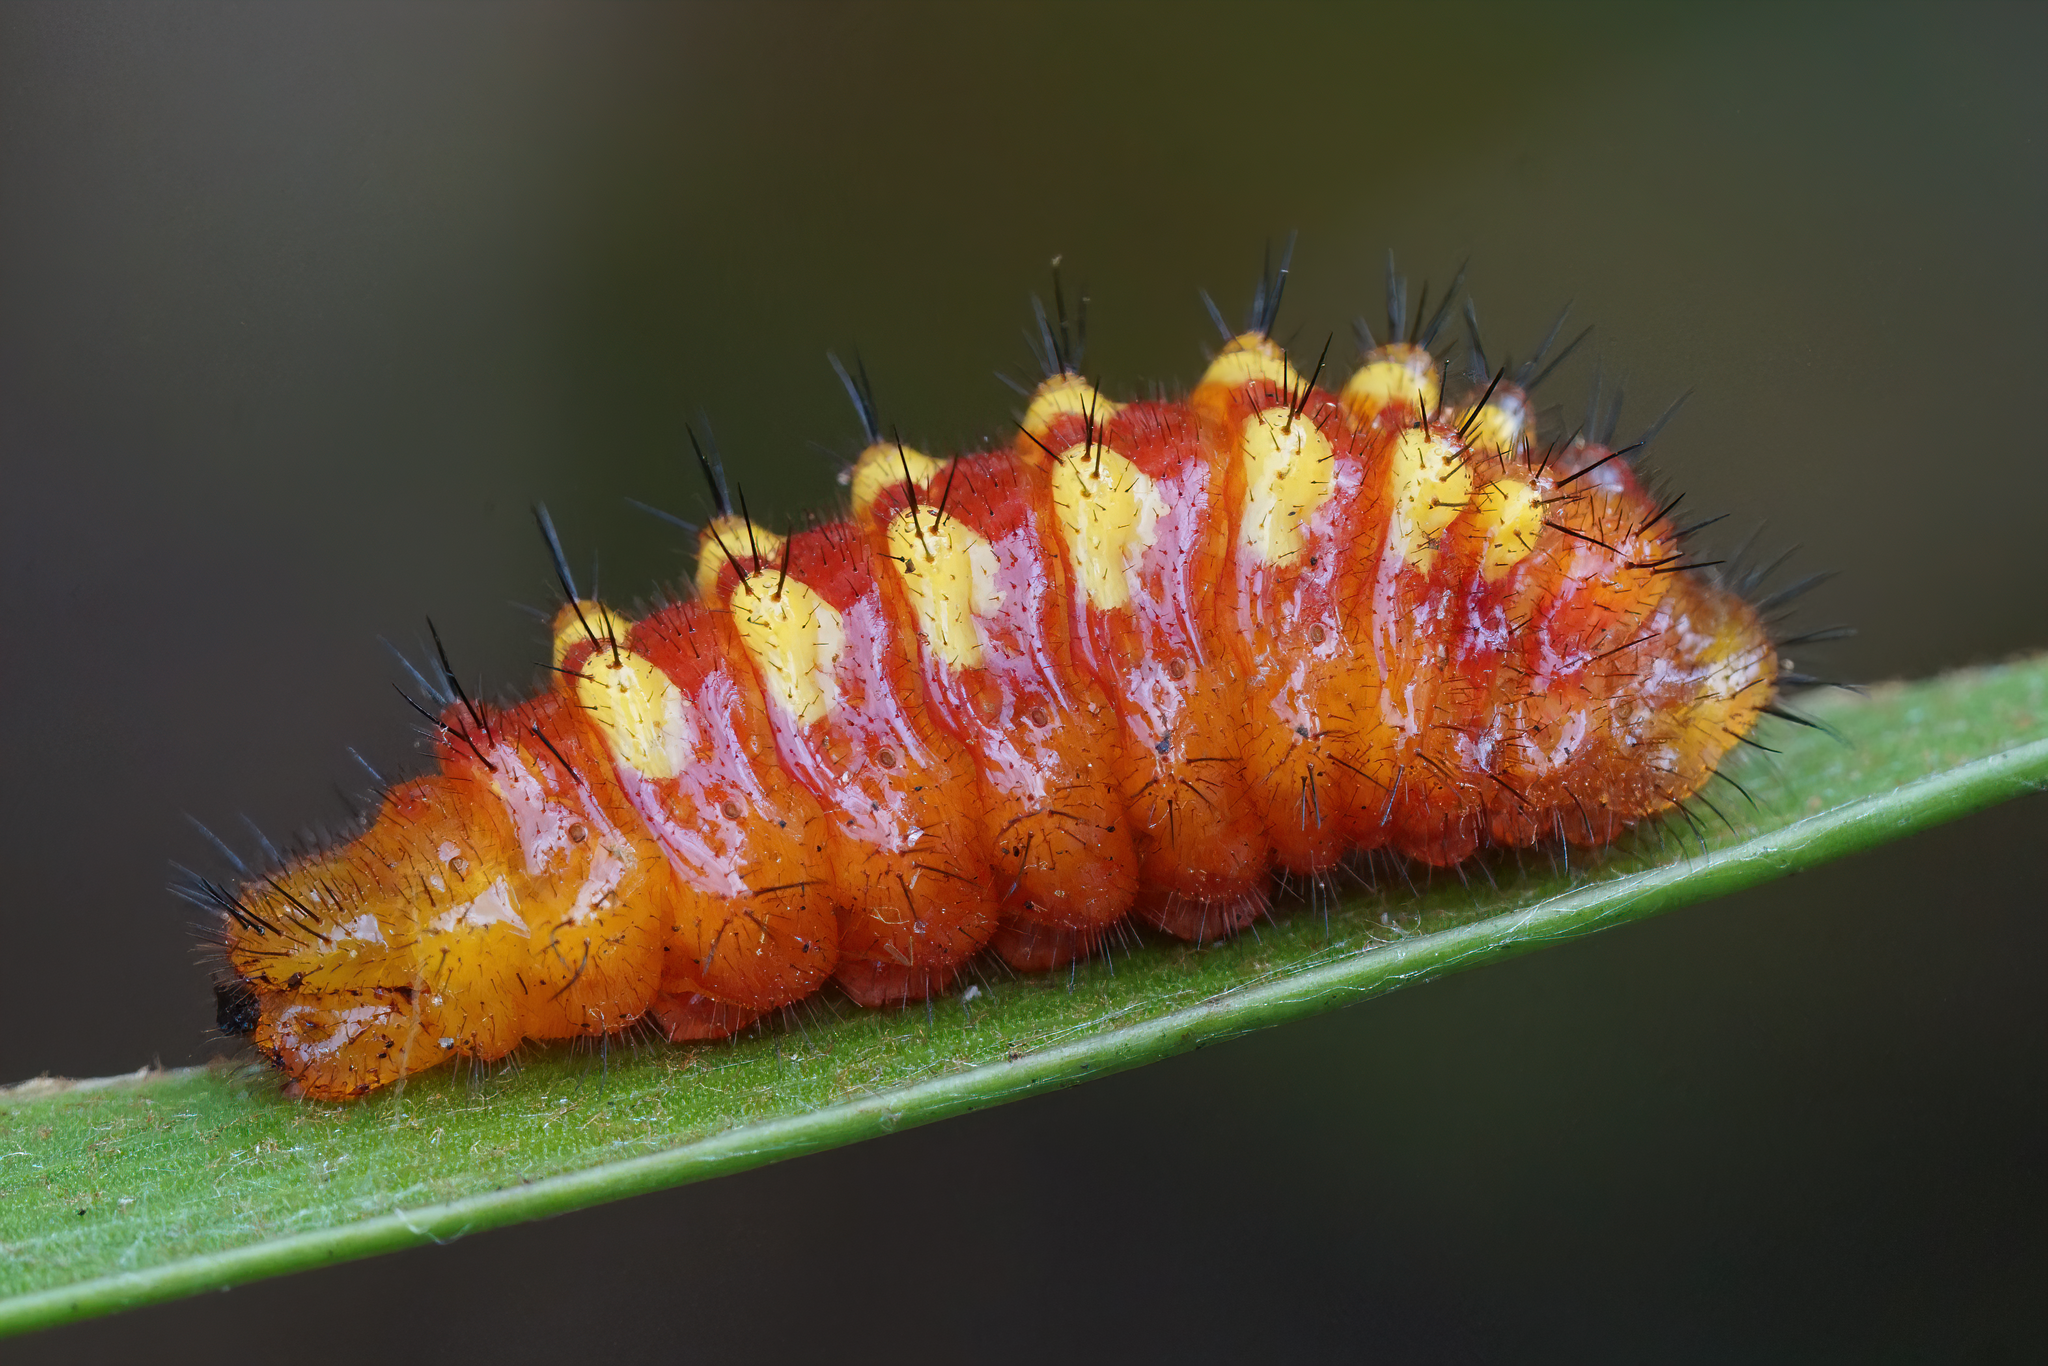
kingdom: Animalia
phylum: Arthropoda
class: Insecta
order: Lepidoptera
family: Lycaenidae
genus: Eumaeus
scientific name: Eumaeus atala
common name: Atala
